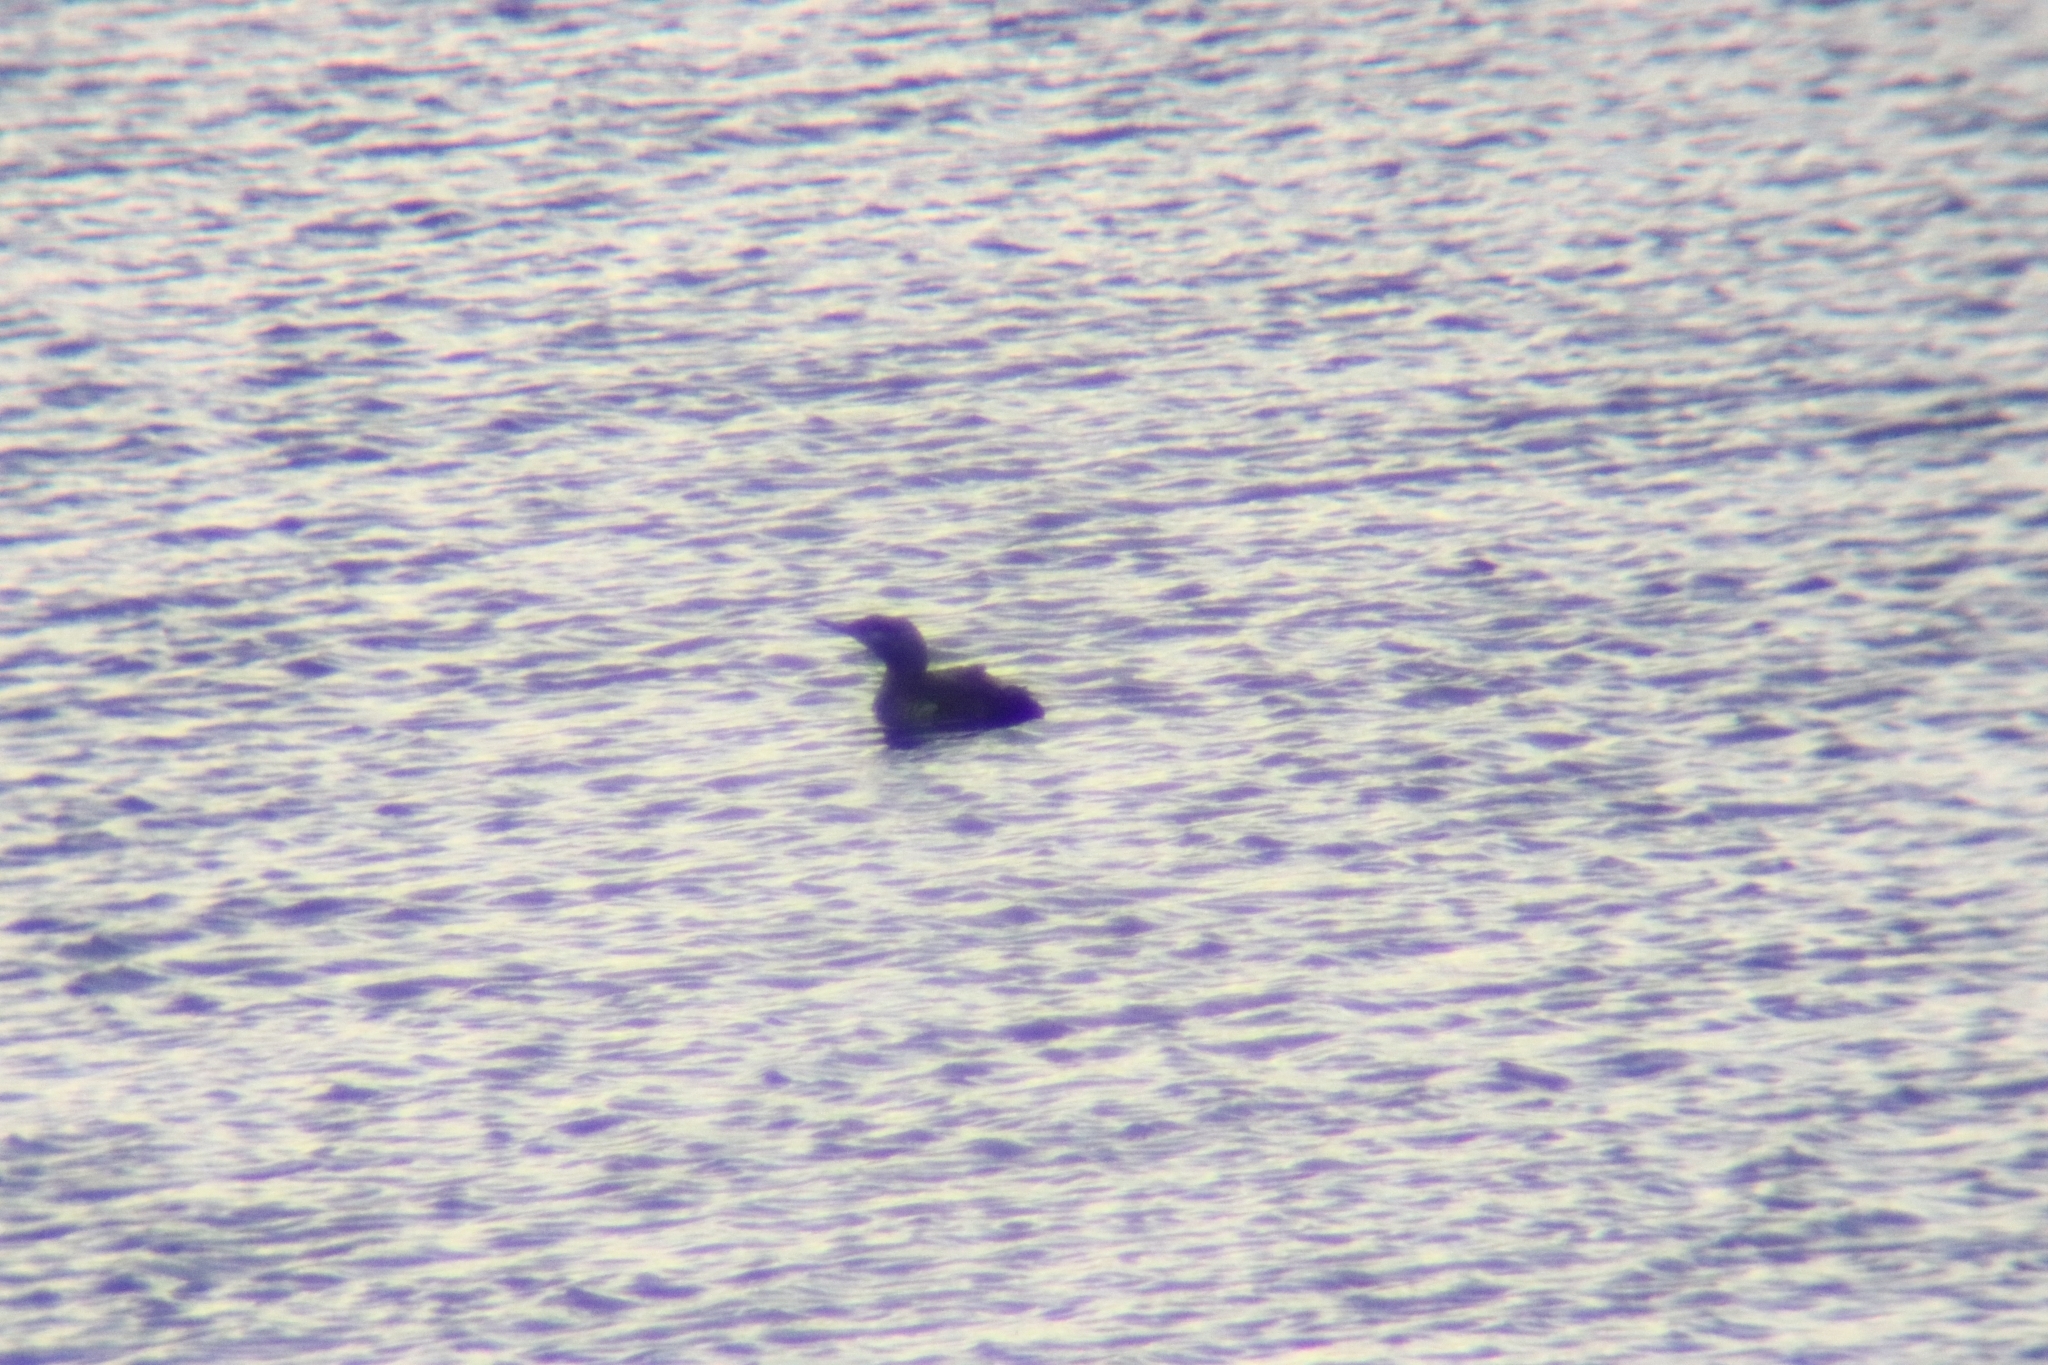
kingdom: Animalia
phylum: Chordata
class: Aves
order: Gaviiformes
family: Gaviidae
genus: Gavia
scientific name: Gavia stellata
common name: Red-throated loon
